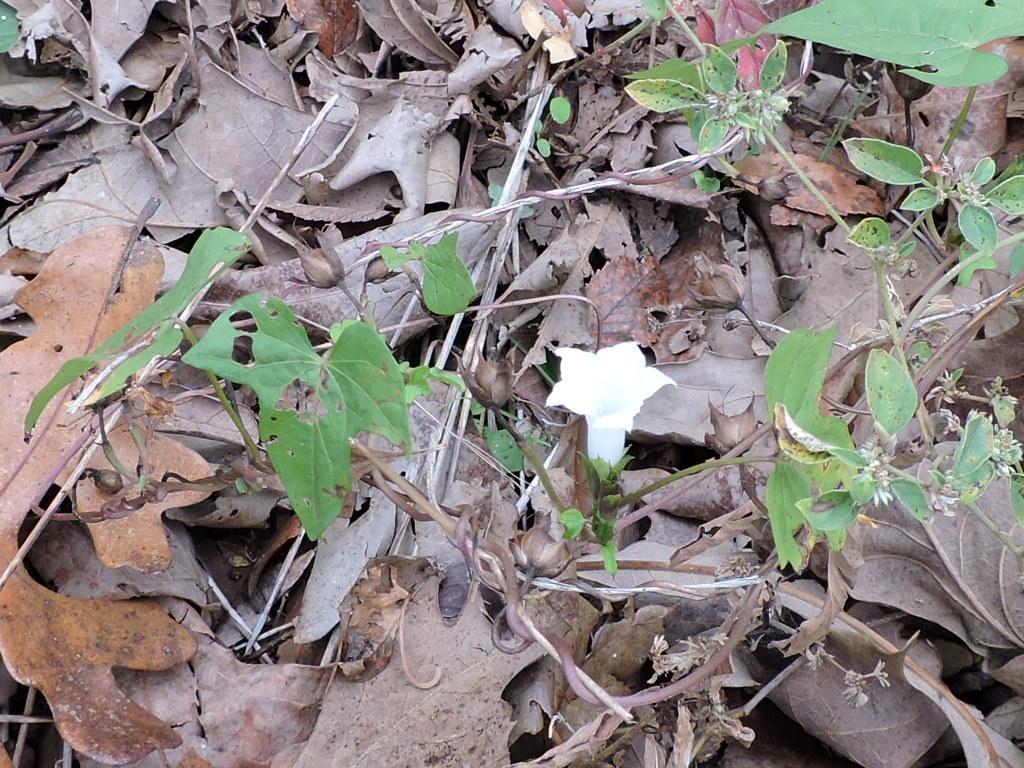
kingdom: Plantae
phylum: Tracheophyta
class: Magnoliopsida
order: Solanales
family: Convolvulaceae
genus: Ipomoea
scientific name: Ipomoea lacunosa
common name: White morning-glory
